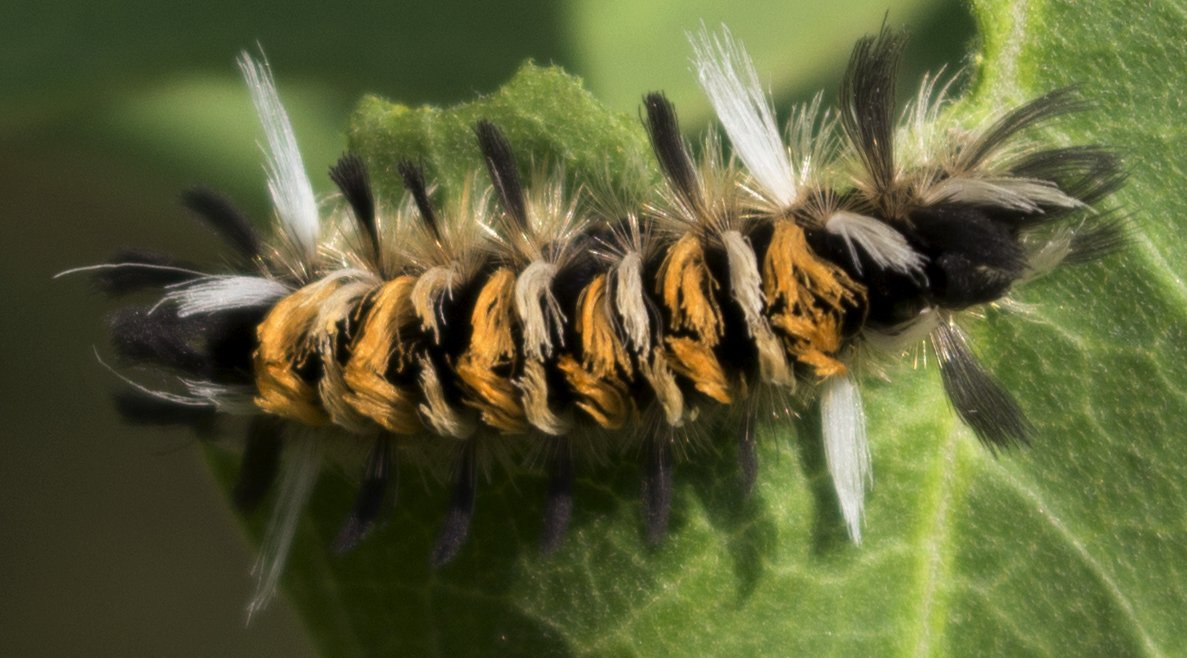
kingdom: Animalia
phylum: Arthropoda
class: Insecta
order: Lepidoptera
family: Erebidae
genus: Euchaetes
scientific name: Euchaetes egle
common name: Milkweed tussock moth
